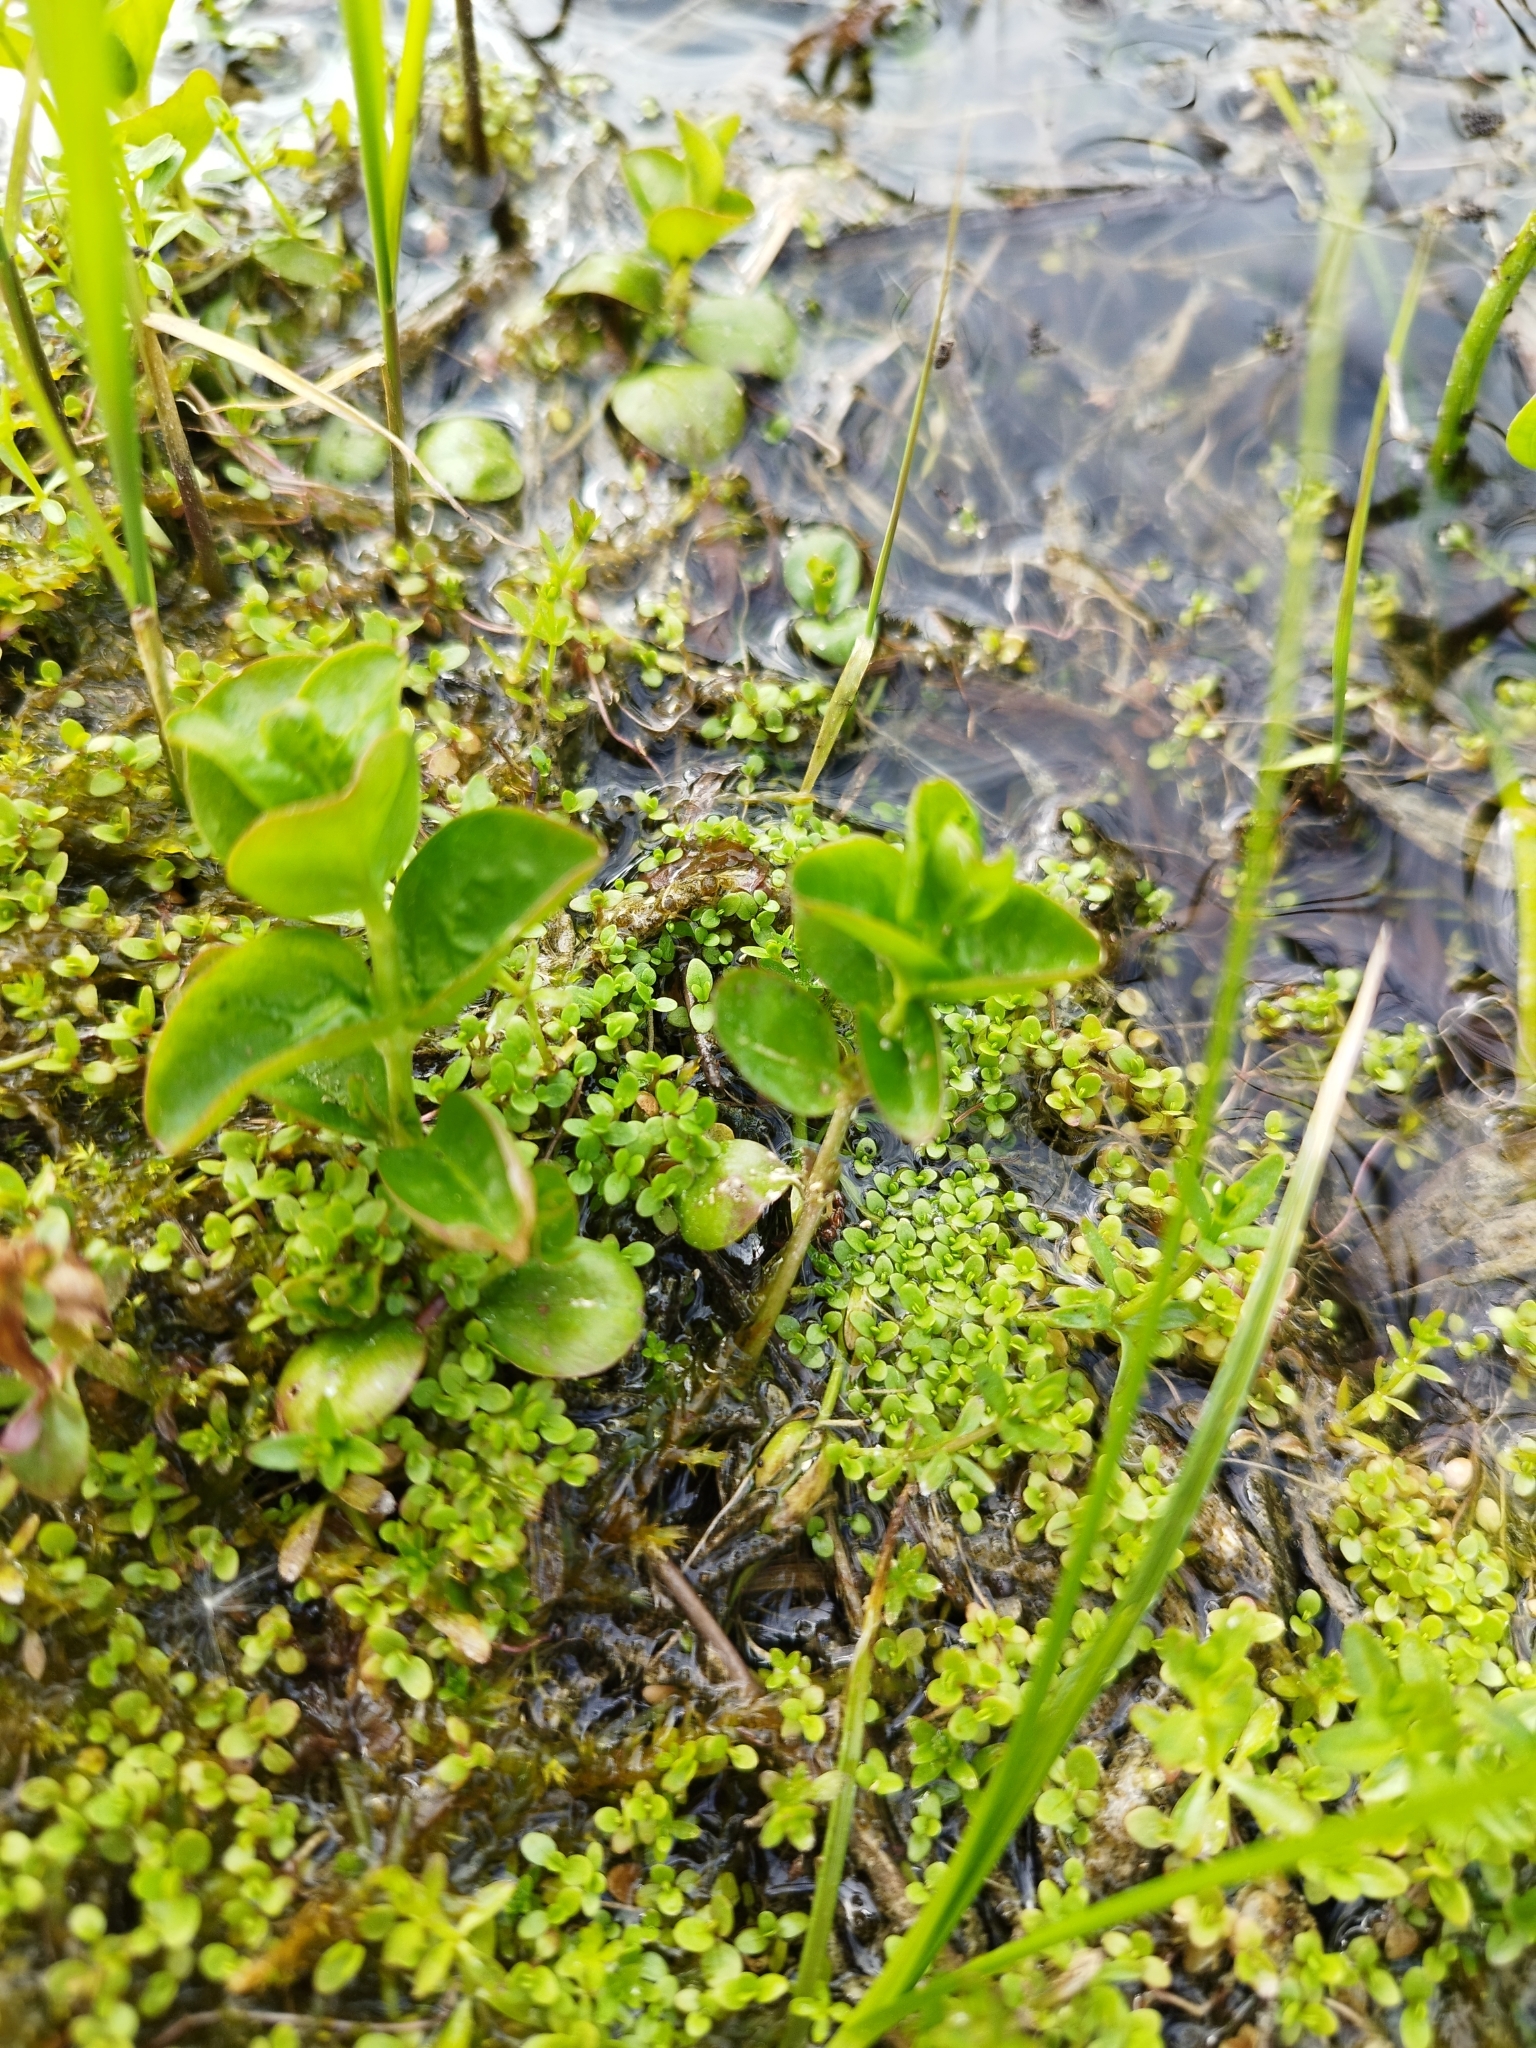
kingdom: Plantae
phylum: Tracheophyta
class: Magnoliopsida
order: Ericales
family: Primulaceae
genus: Lysimachia
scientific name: Lysimachia nummularia
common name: Moneywort
